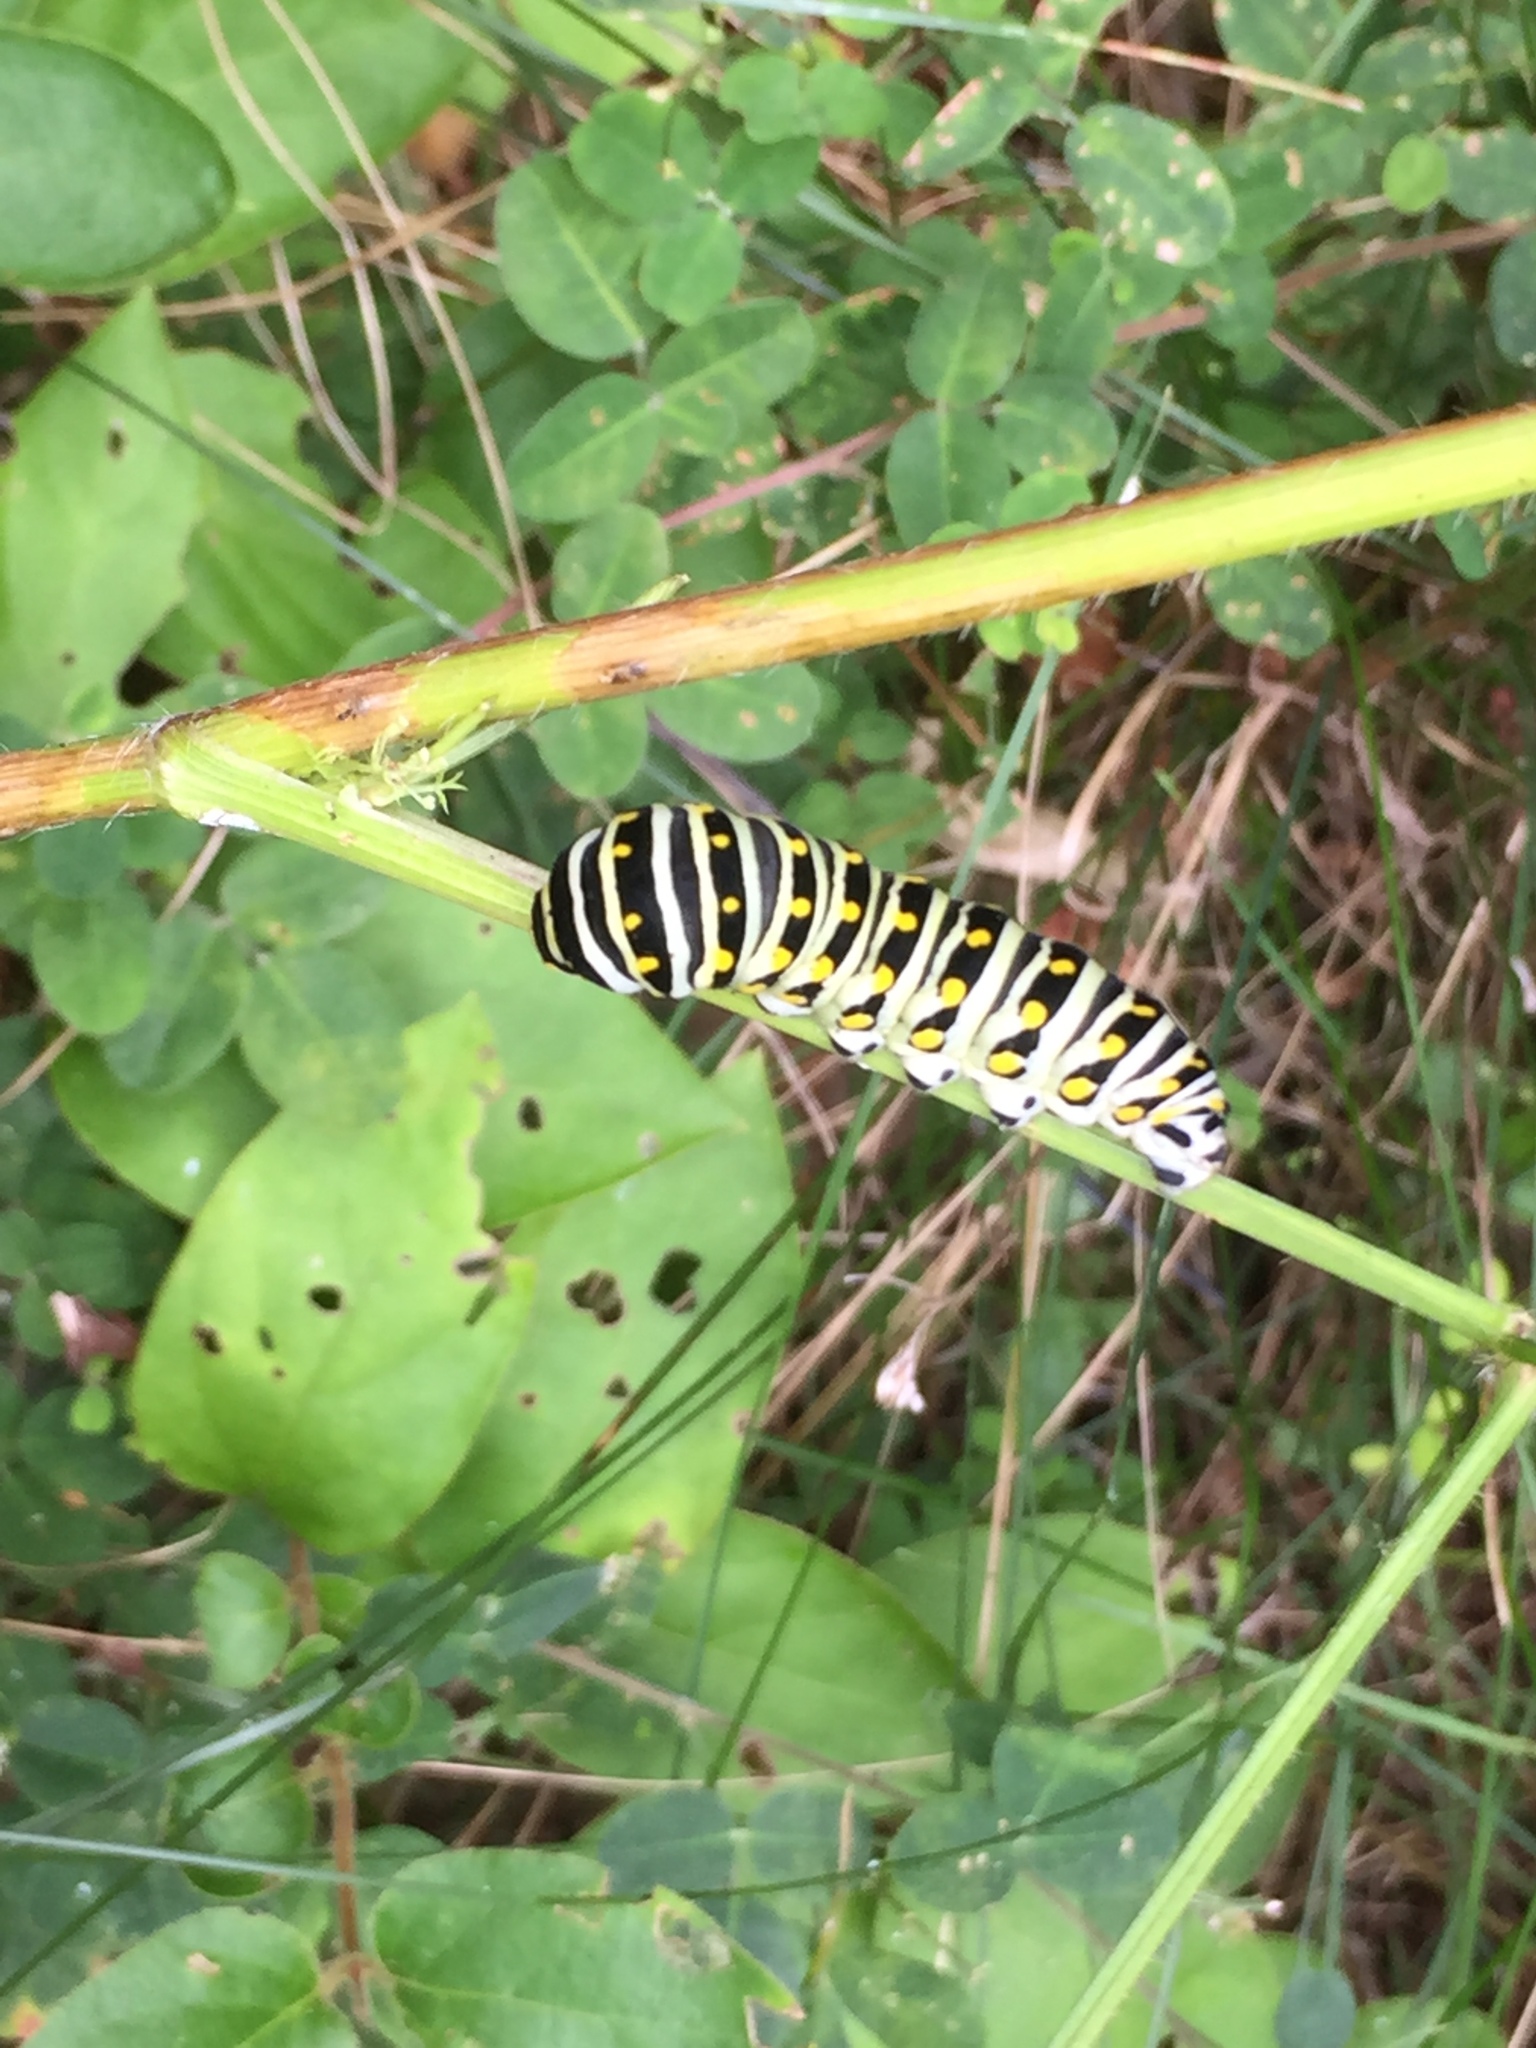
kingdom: Animalia
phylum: Arthropoda
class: Insecta
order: Lepidoptera
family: Papilionidae
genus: Papilio
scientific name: Papilio polyxenes
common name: Black swallowtail
